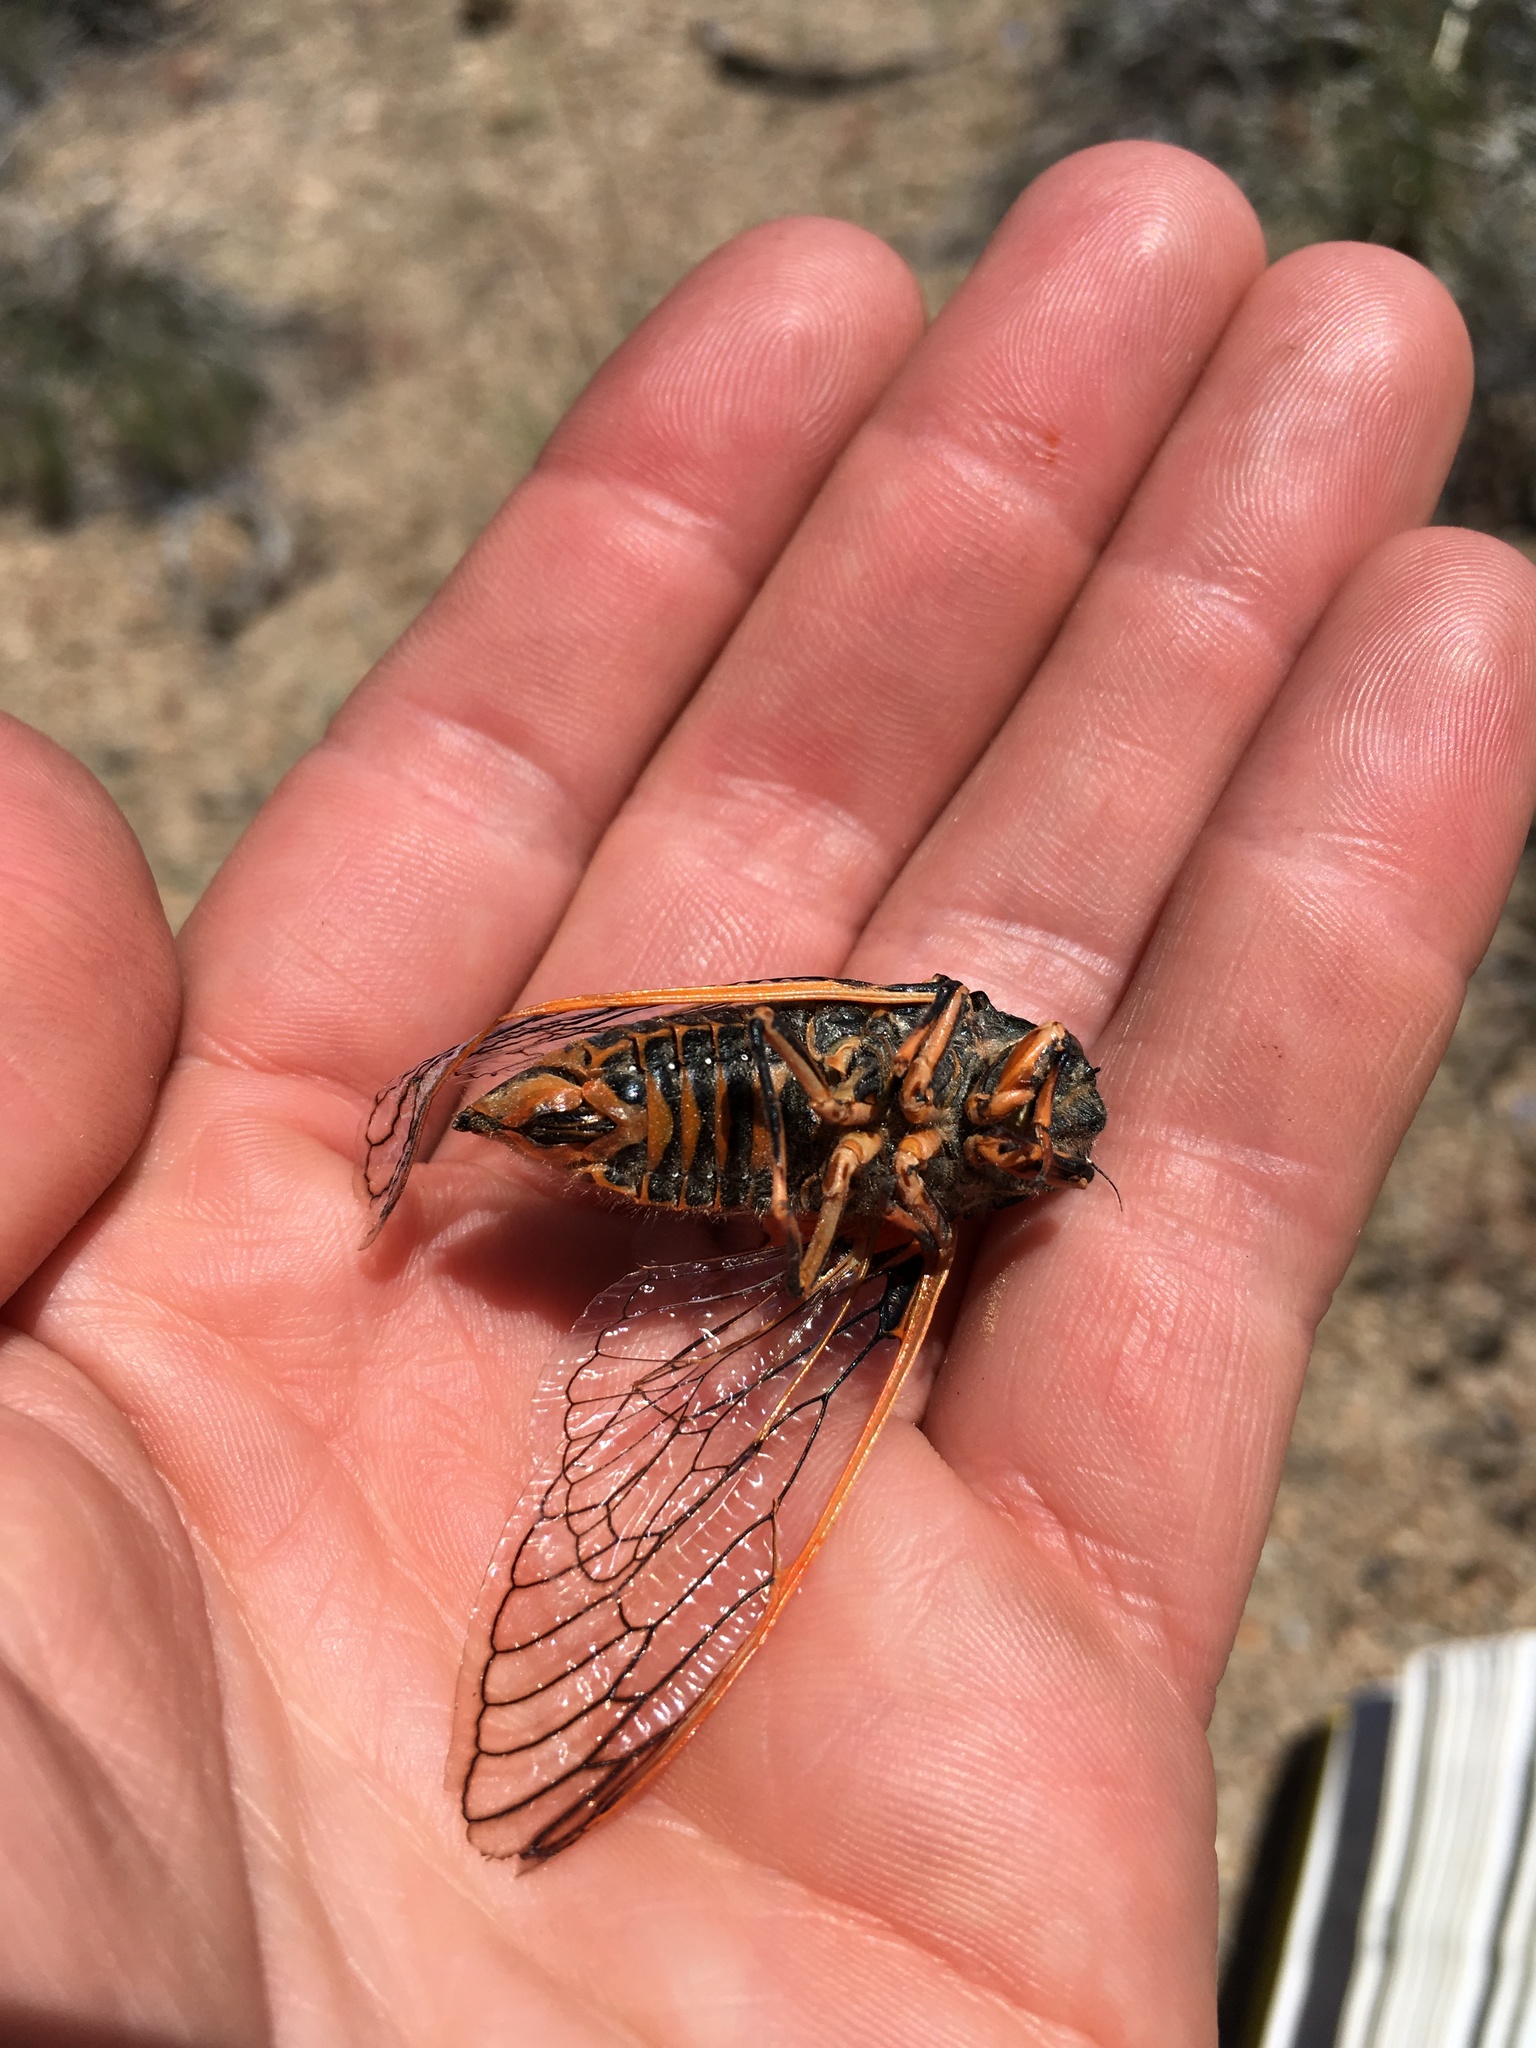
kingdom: Animalia
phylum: Arthropoda
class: Insecta
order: Hemiptera
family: Cicadidae
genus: Okanagana
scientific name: Okanagana magnifica
